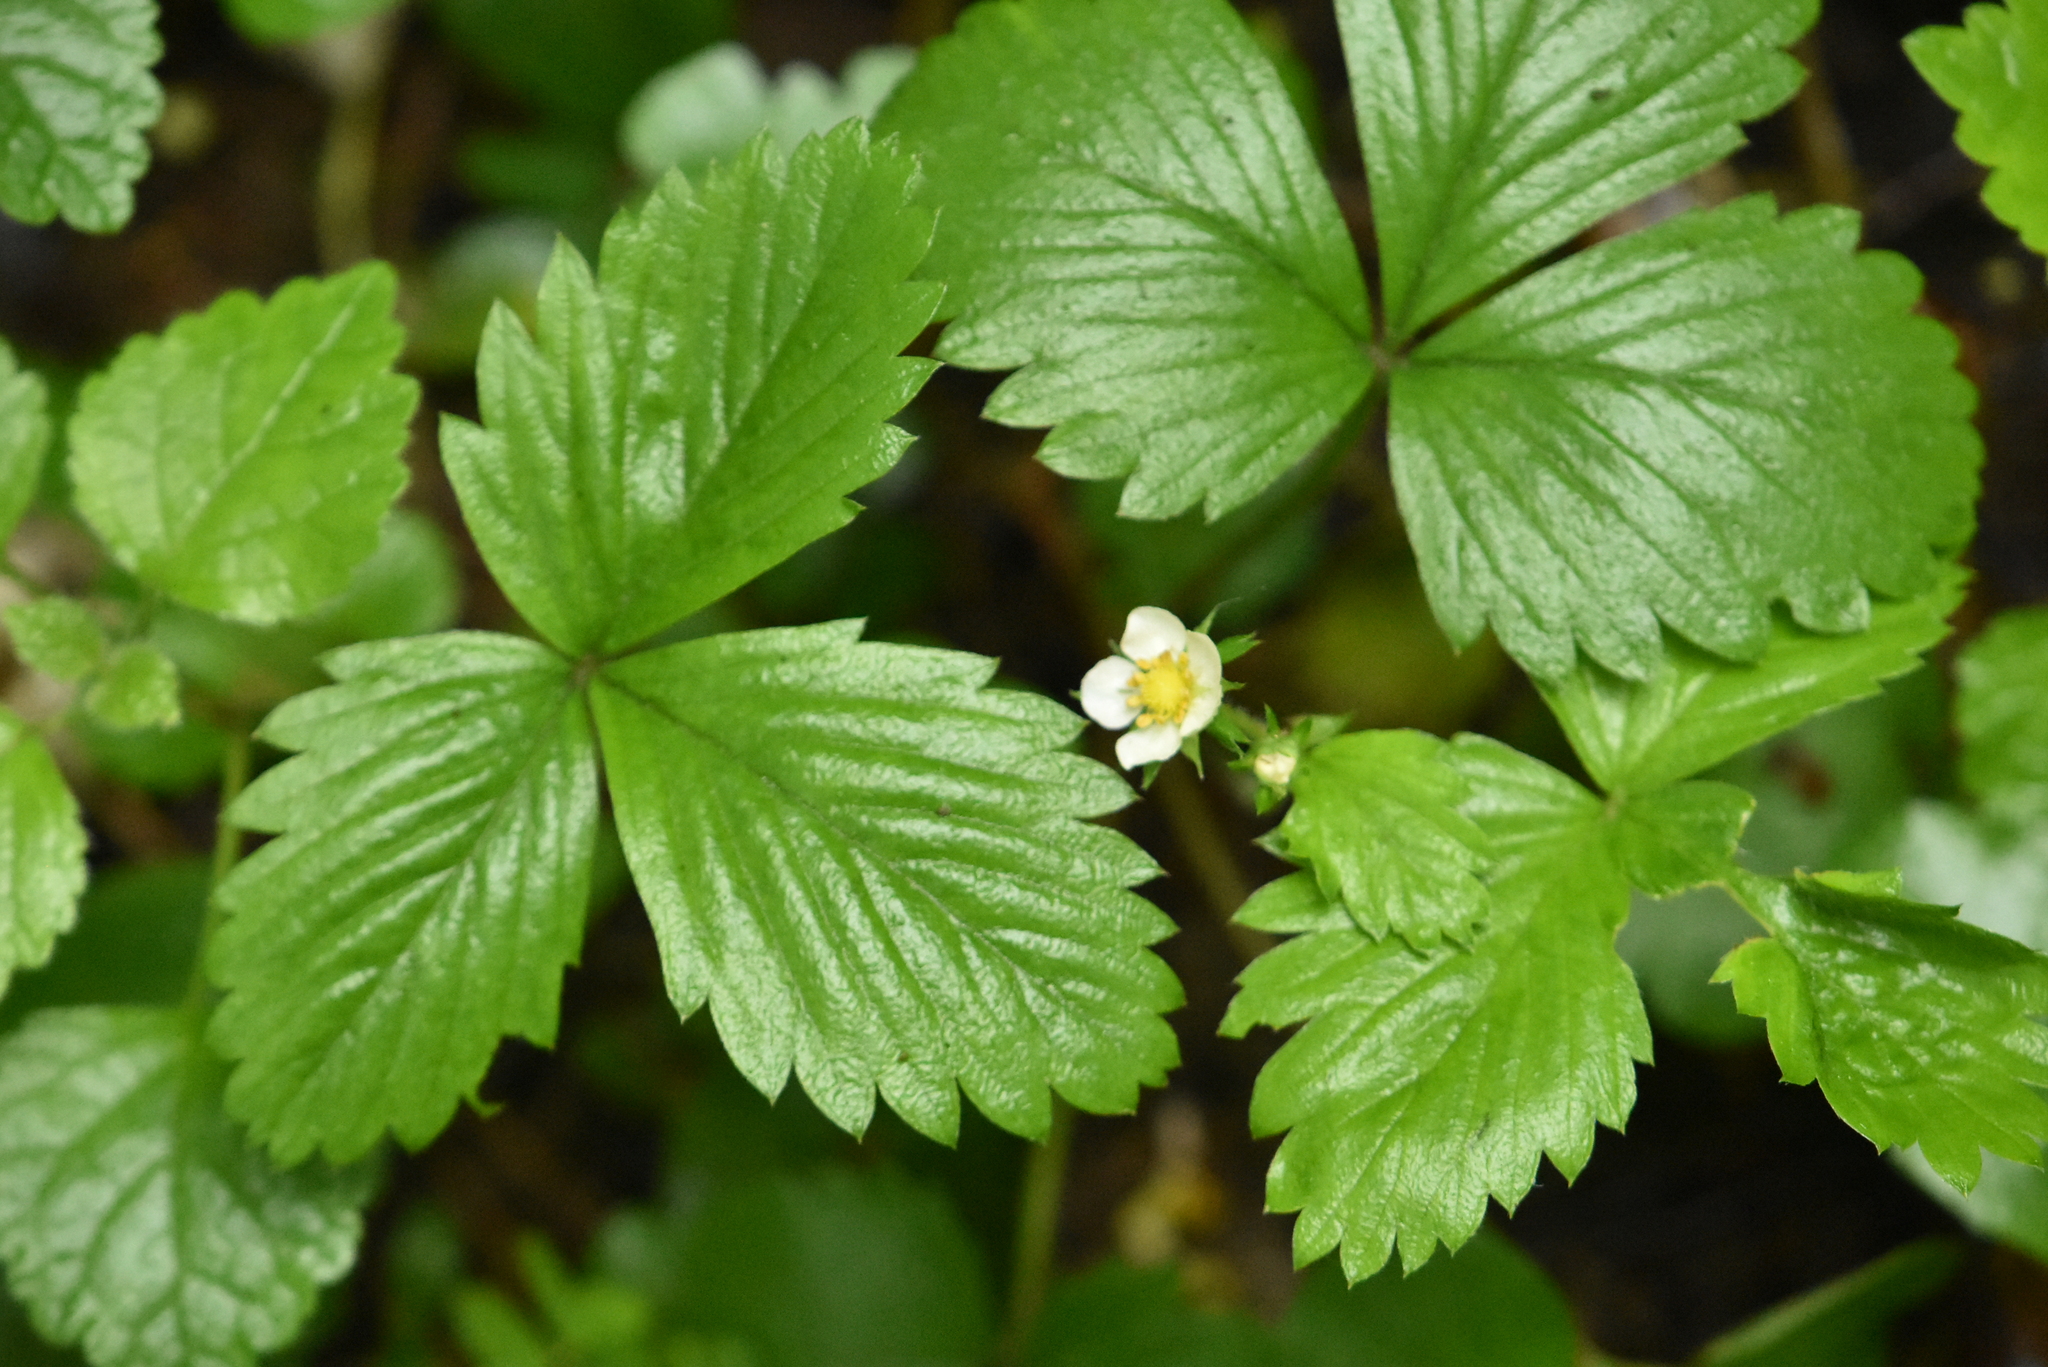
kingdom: Plantae
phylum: Tracheophyta
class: Magnoliopsida
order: Rosales
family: Rosaceae
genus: Fragaria
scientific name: Fragaria vesca
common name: Wild strawberry
